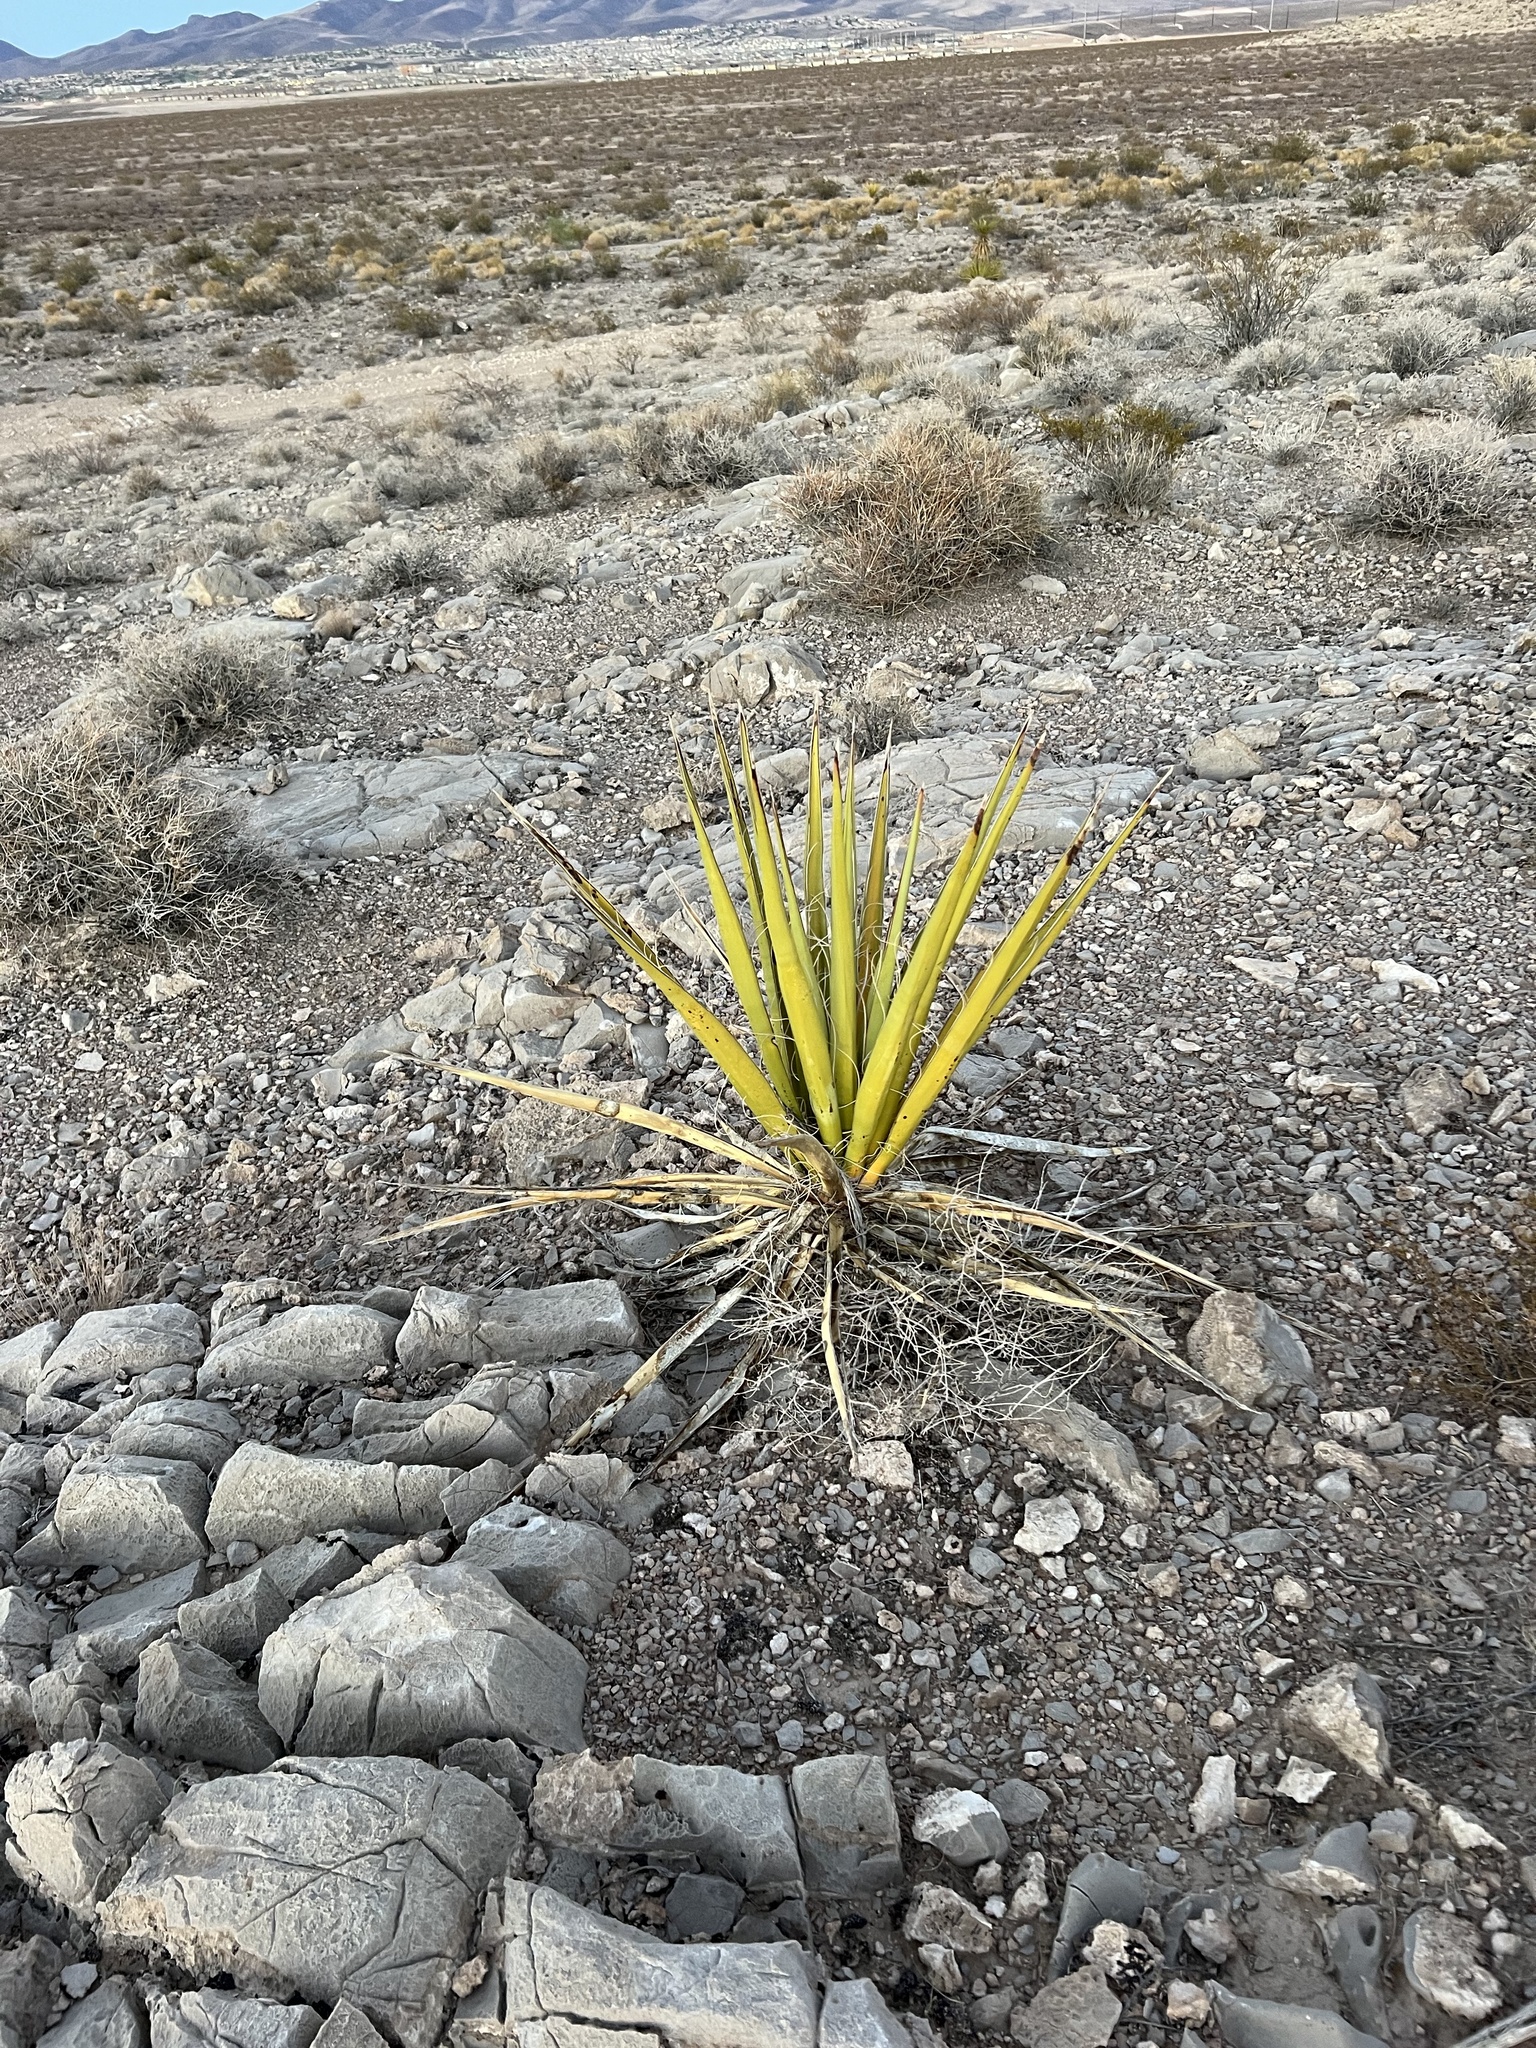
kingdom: Plantae
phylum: Tracheophyta
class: Liliopsida
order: Asparagales
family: Asparagaceae
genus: Yucca
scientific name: Yucca schidigera
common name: Mojave yucca
